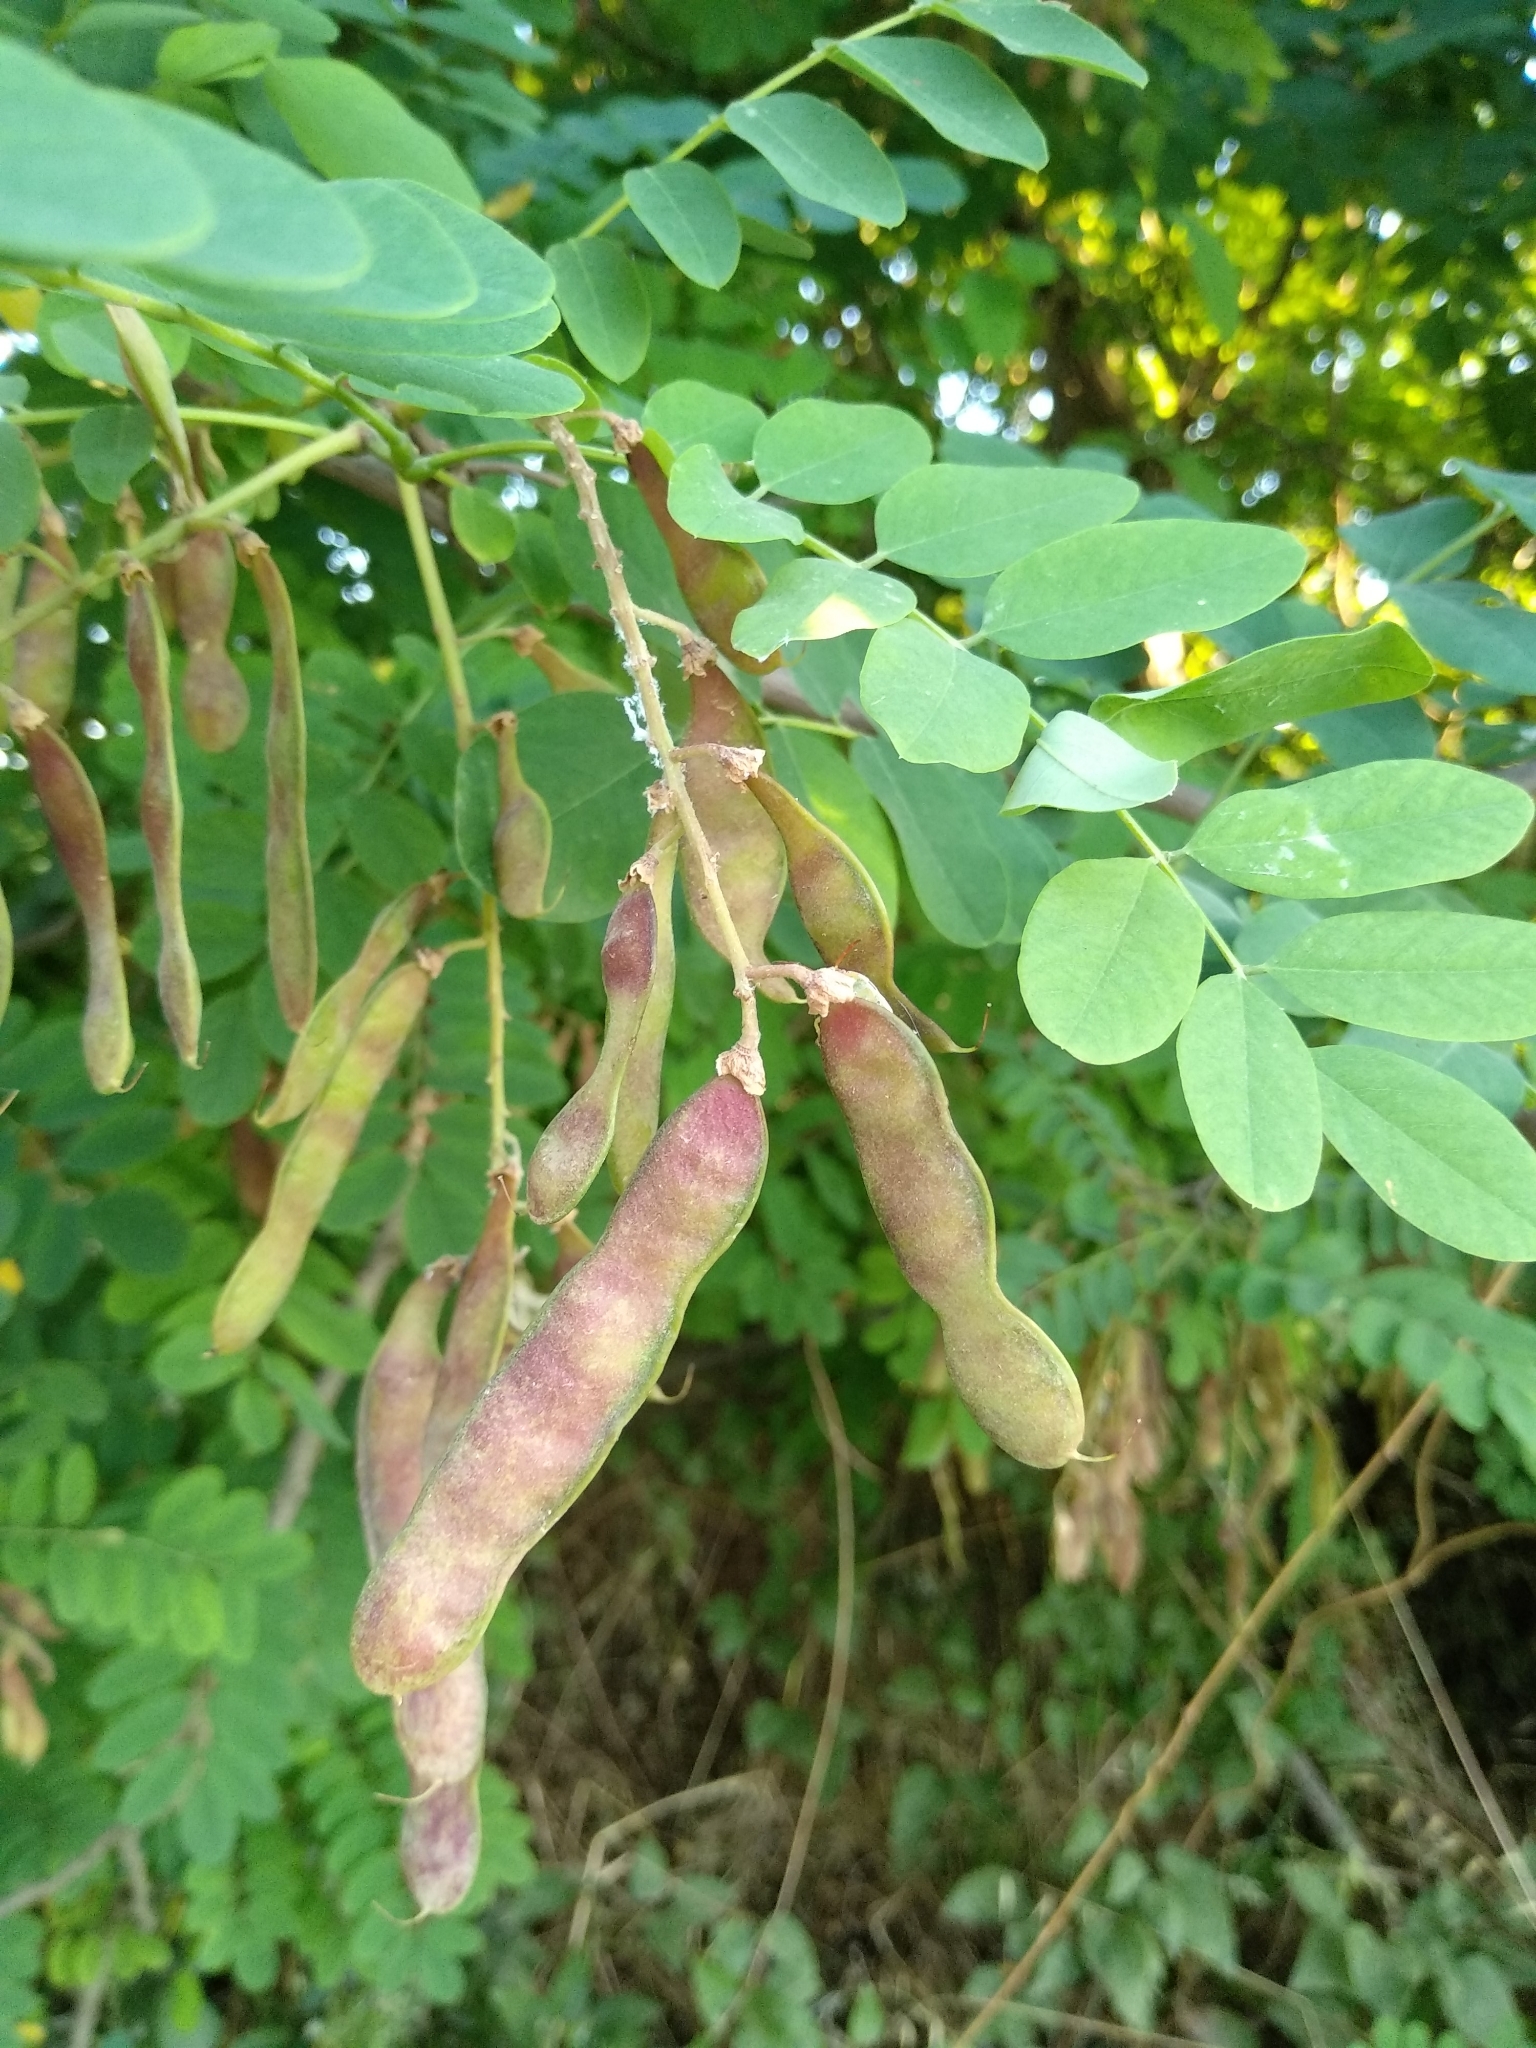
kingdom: Plantae
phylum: Tracheophyta
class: Magnoliopsida
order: Fabales
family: Fabaceae
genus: Robinia
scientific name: Robinia pseudoacacia
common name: Black locust
